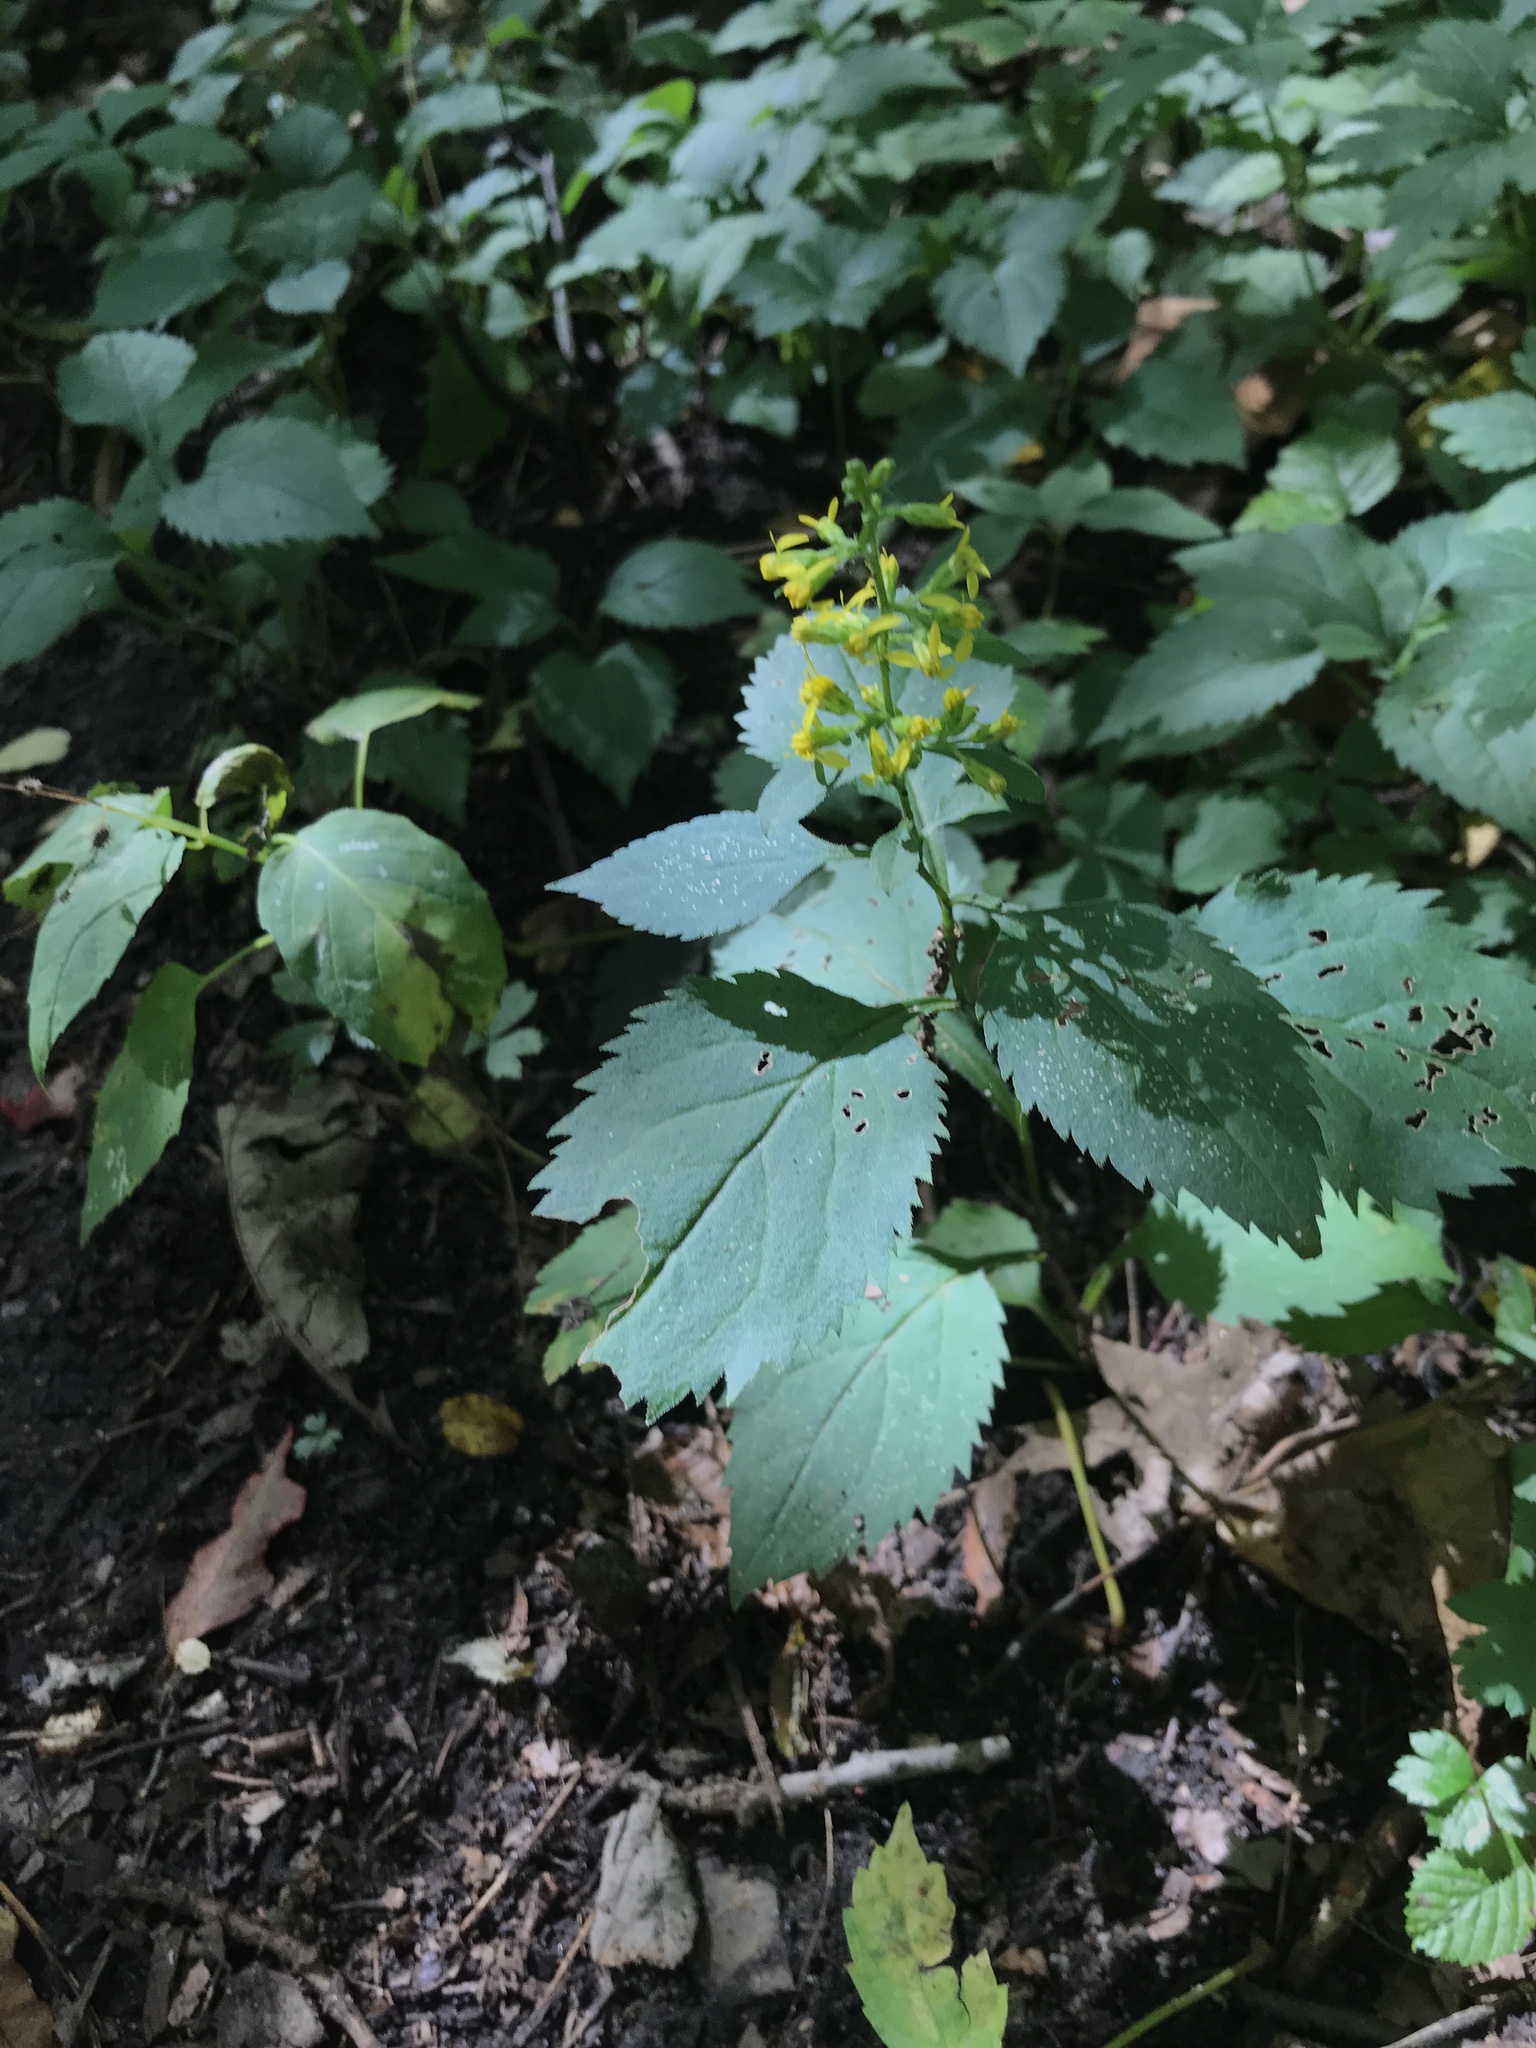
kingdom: Plantae
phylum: Tracheophyta
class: Magnoliopsida
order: Asterales
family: Asteraceae
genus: Solidago
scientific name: Solidago flexicaulis
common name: Zig-zag goldenrod
